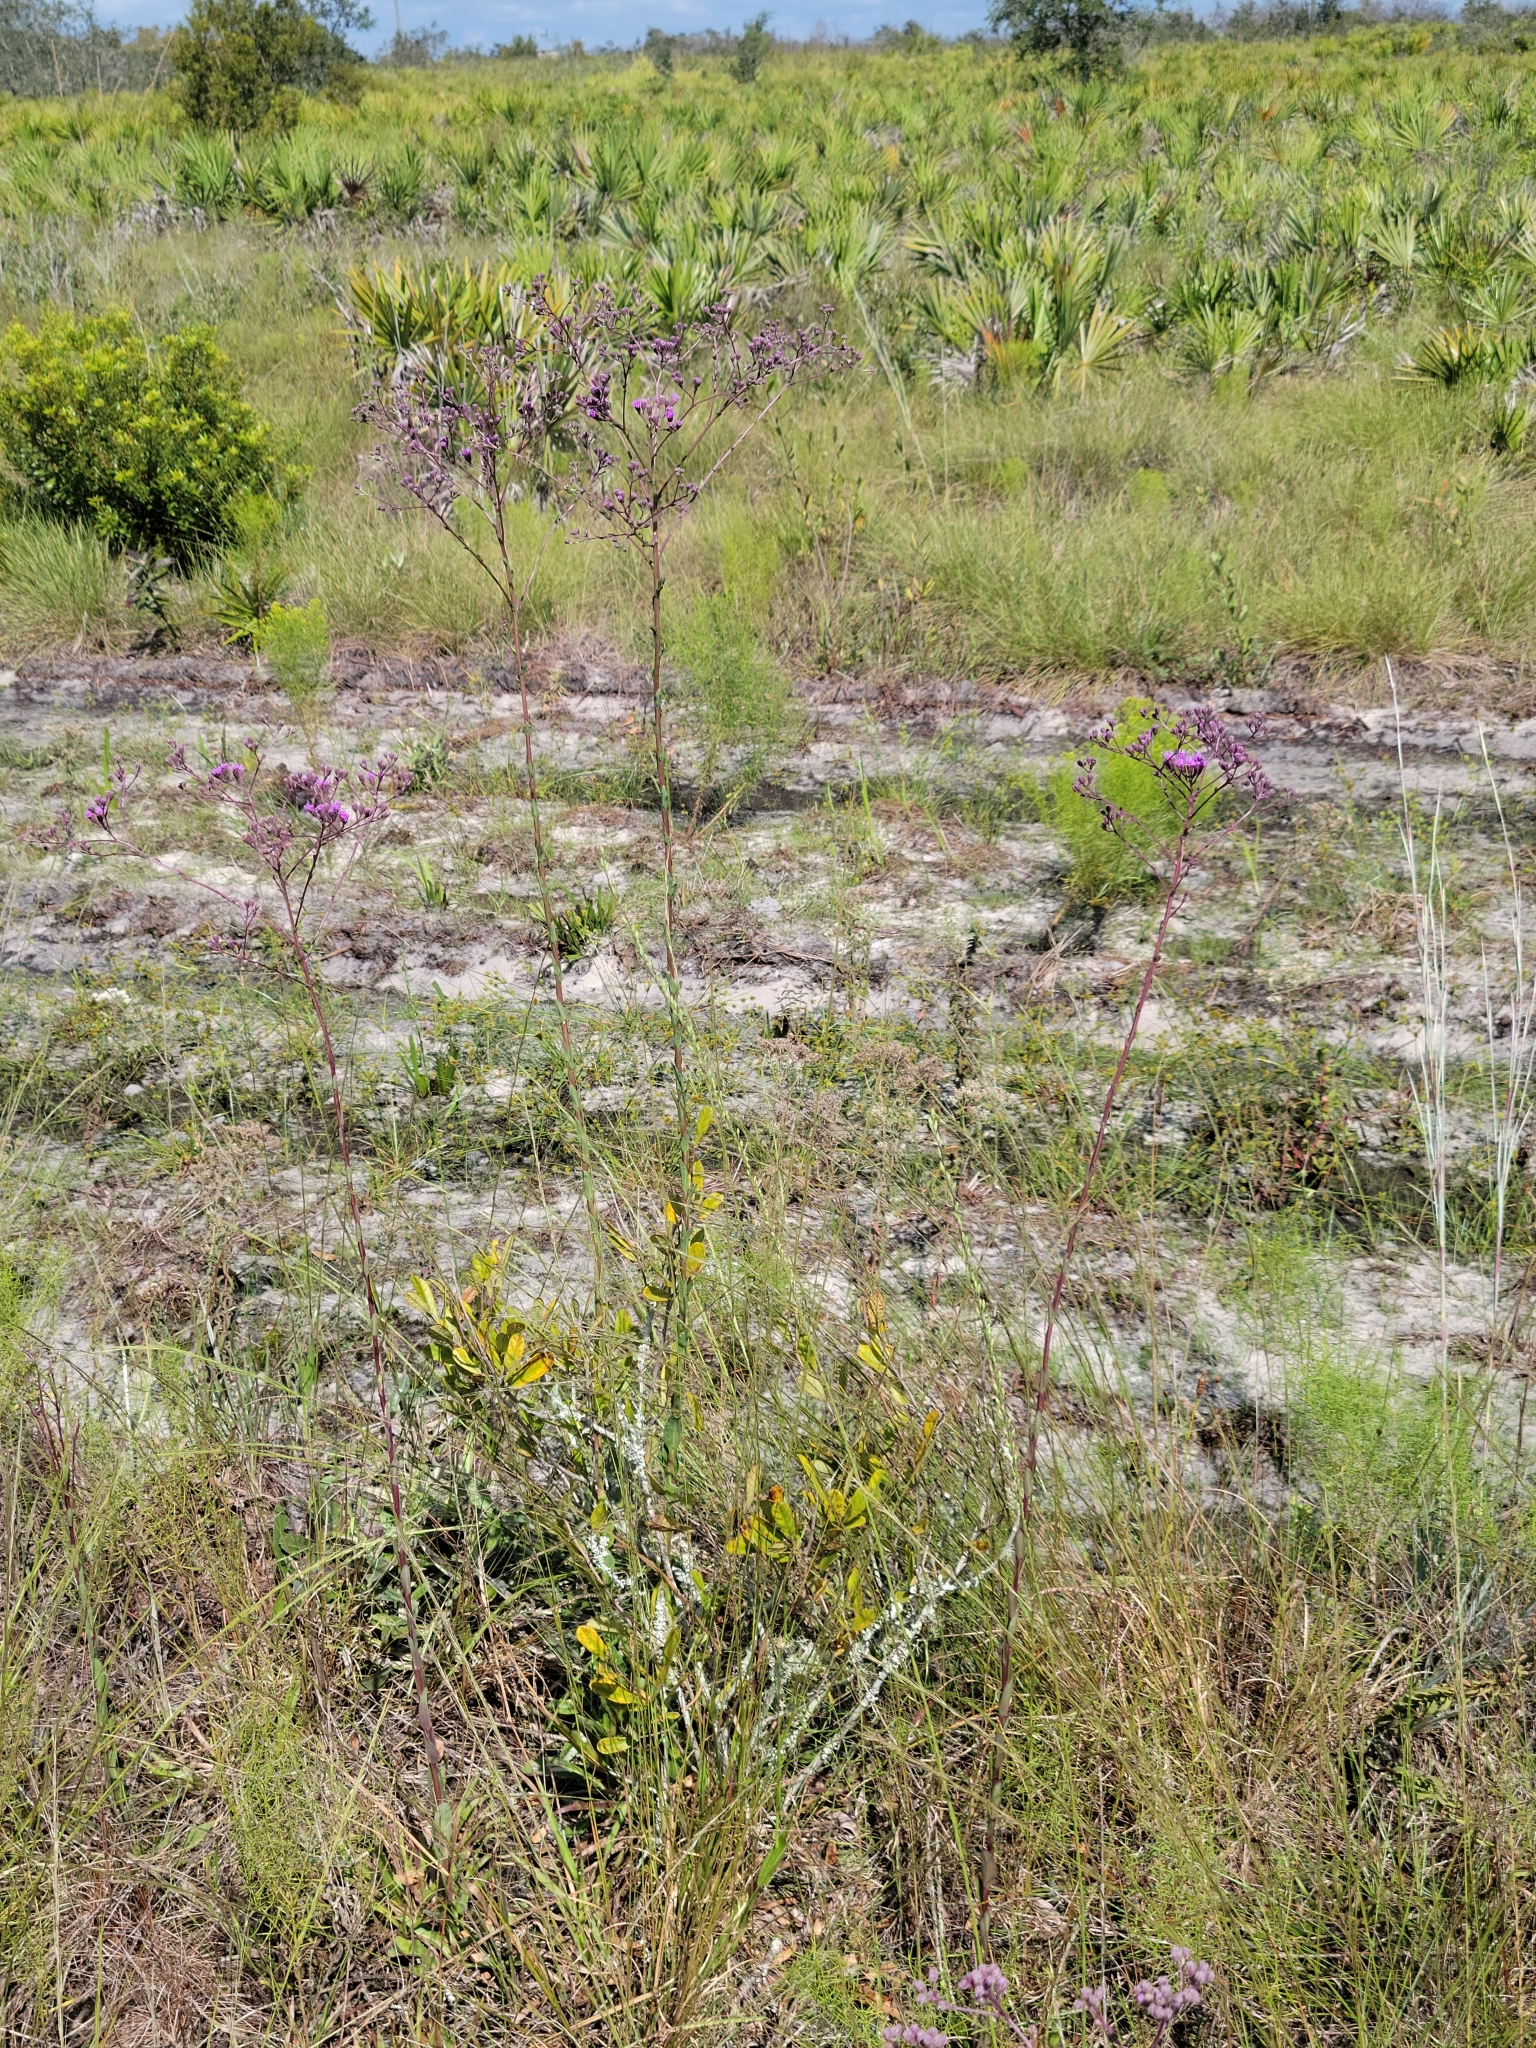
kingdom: Plantae
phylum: Tracheophyta
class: Magnoliopsida
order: Asterales
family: Asteraceae
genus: Carphephorus
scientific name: Carphephorus
